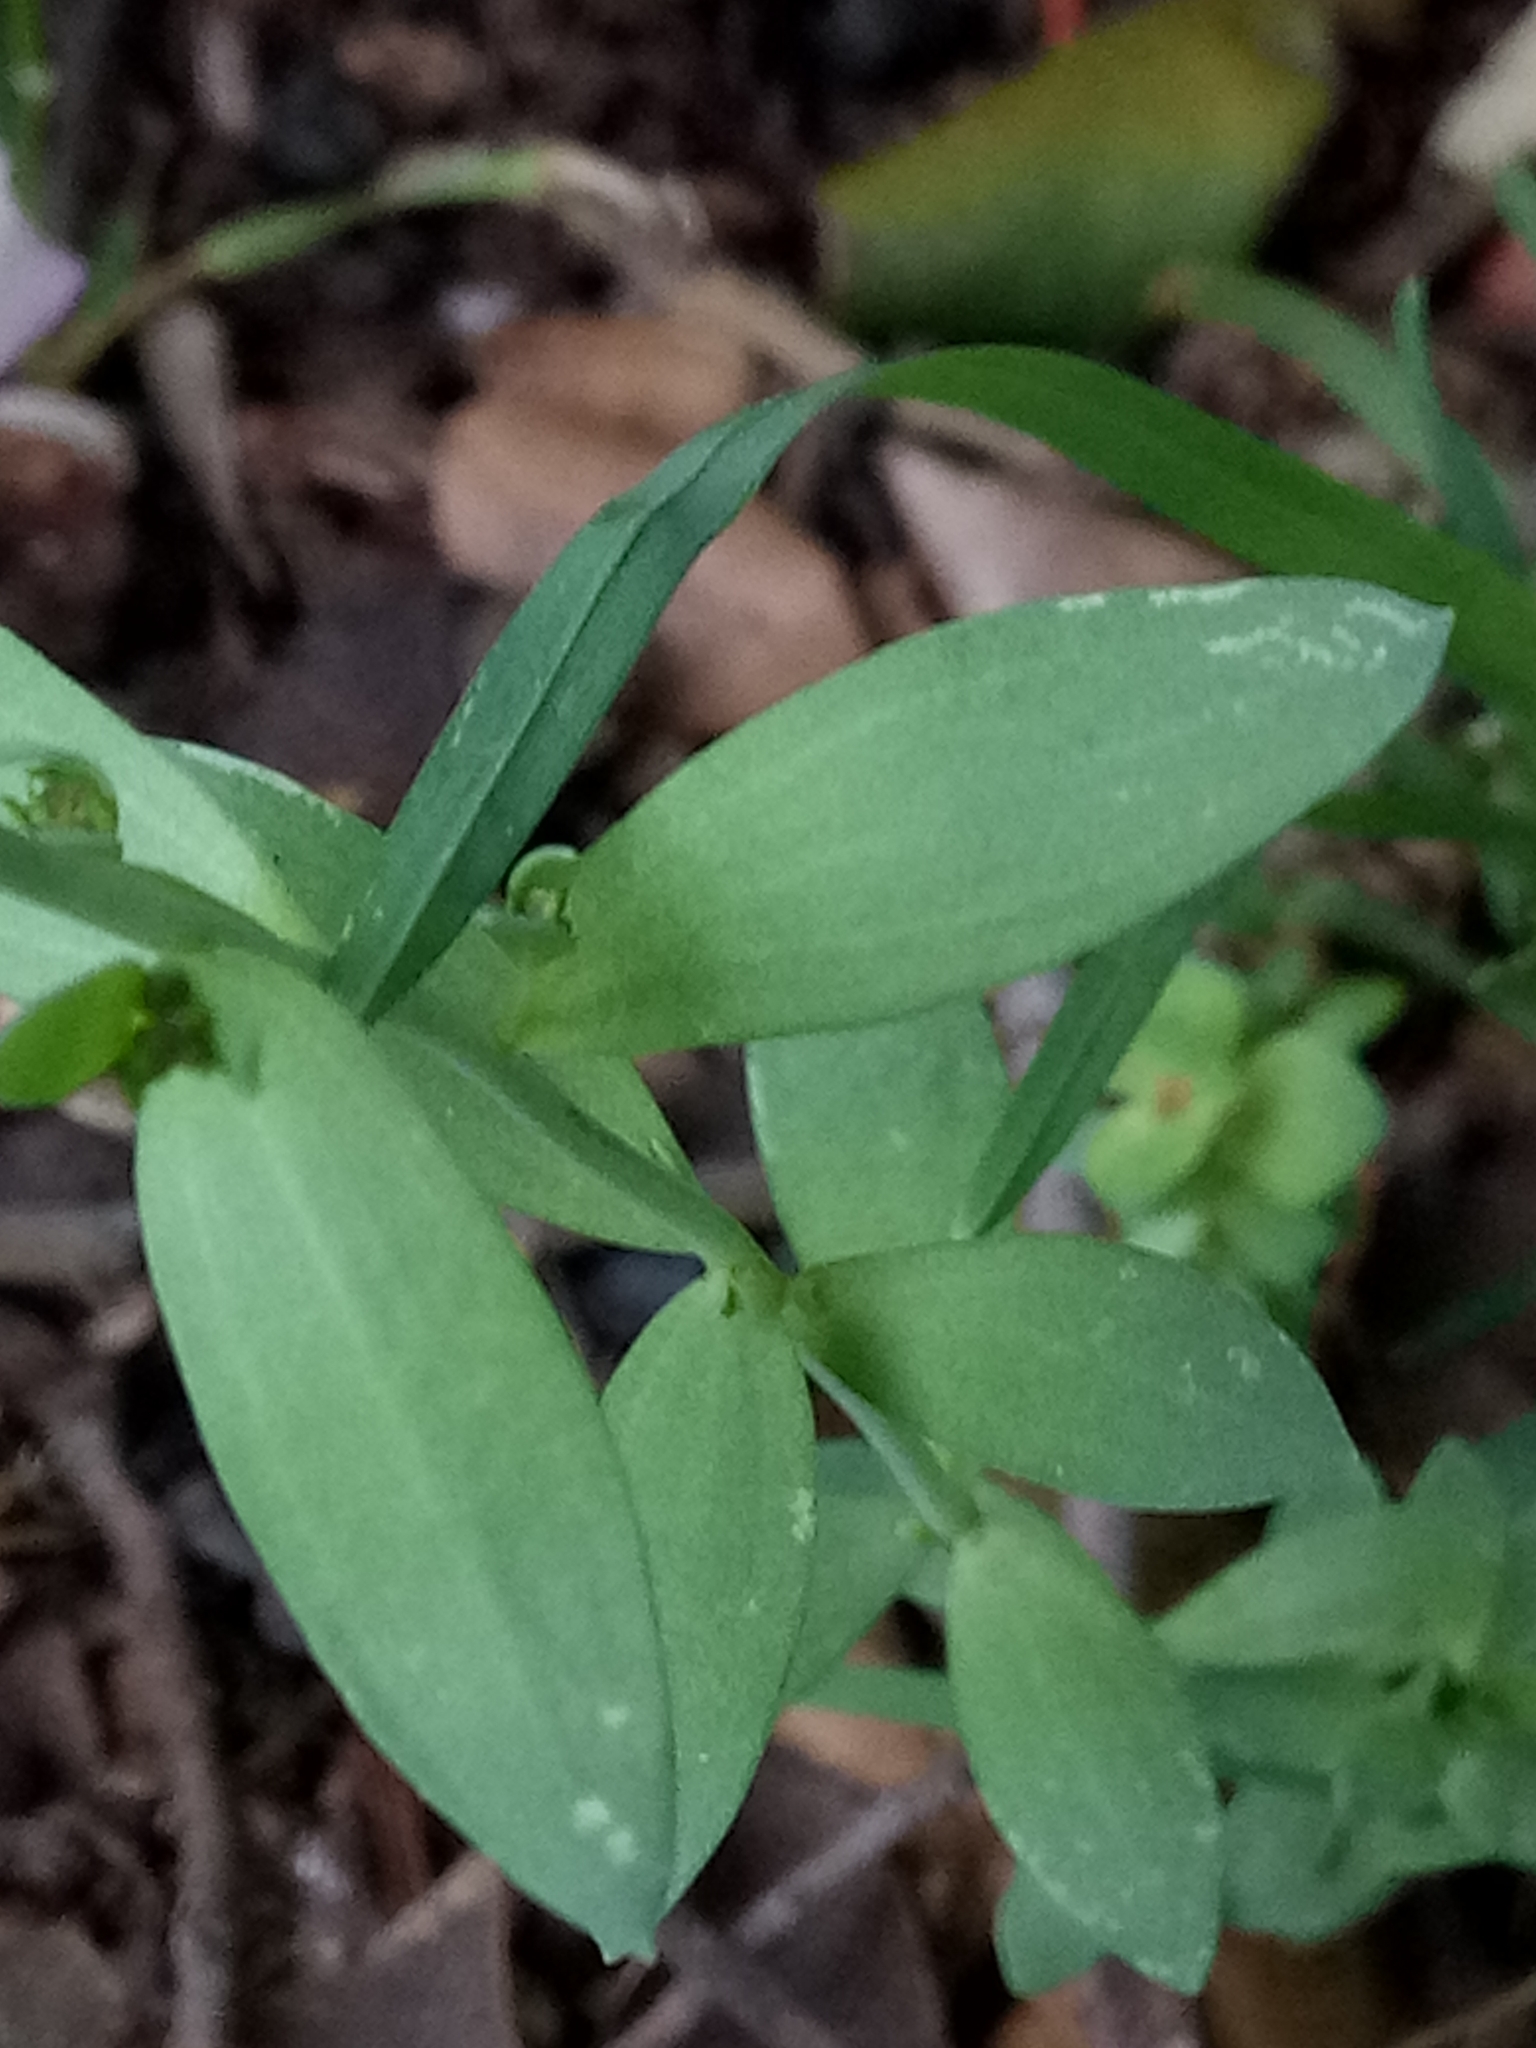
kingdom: Plantae
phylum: Tracheophyta
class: Magnoliopsida
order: Lamiales
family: Plantaginaceae
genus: Linaria
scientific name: Linaria virgata
